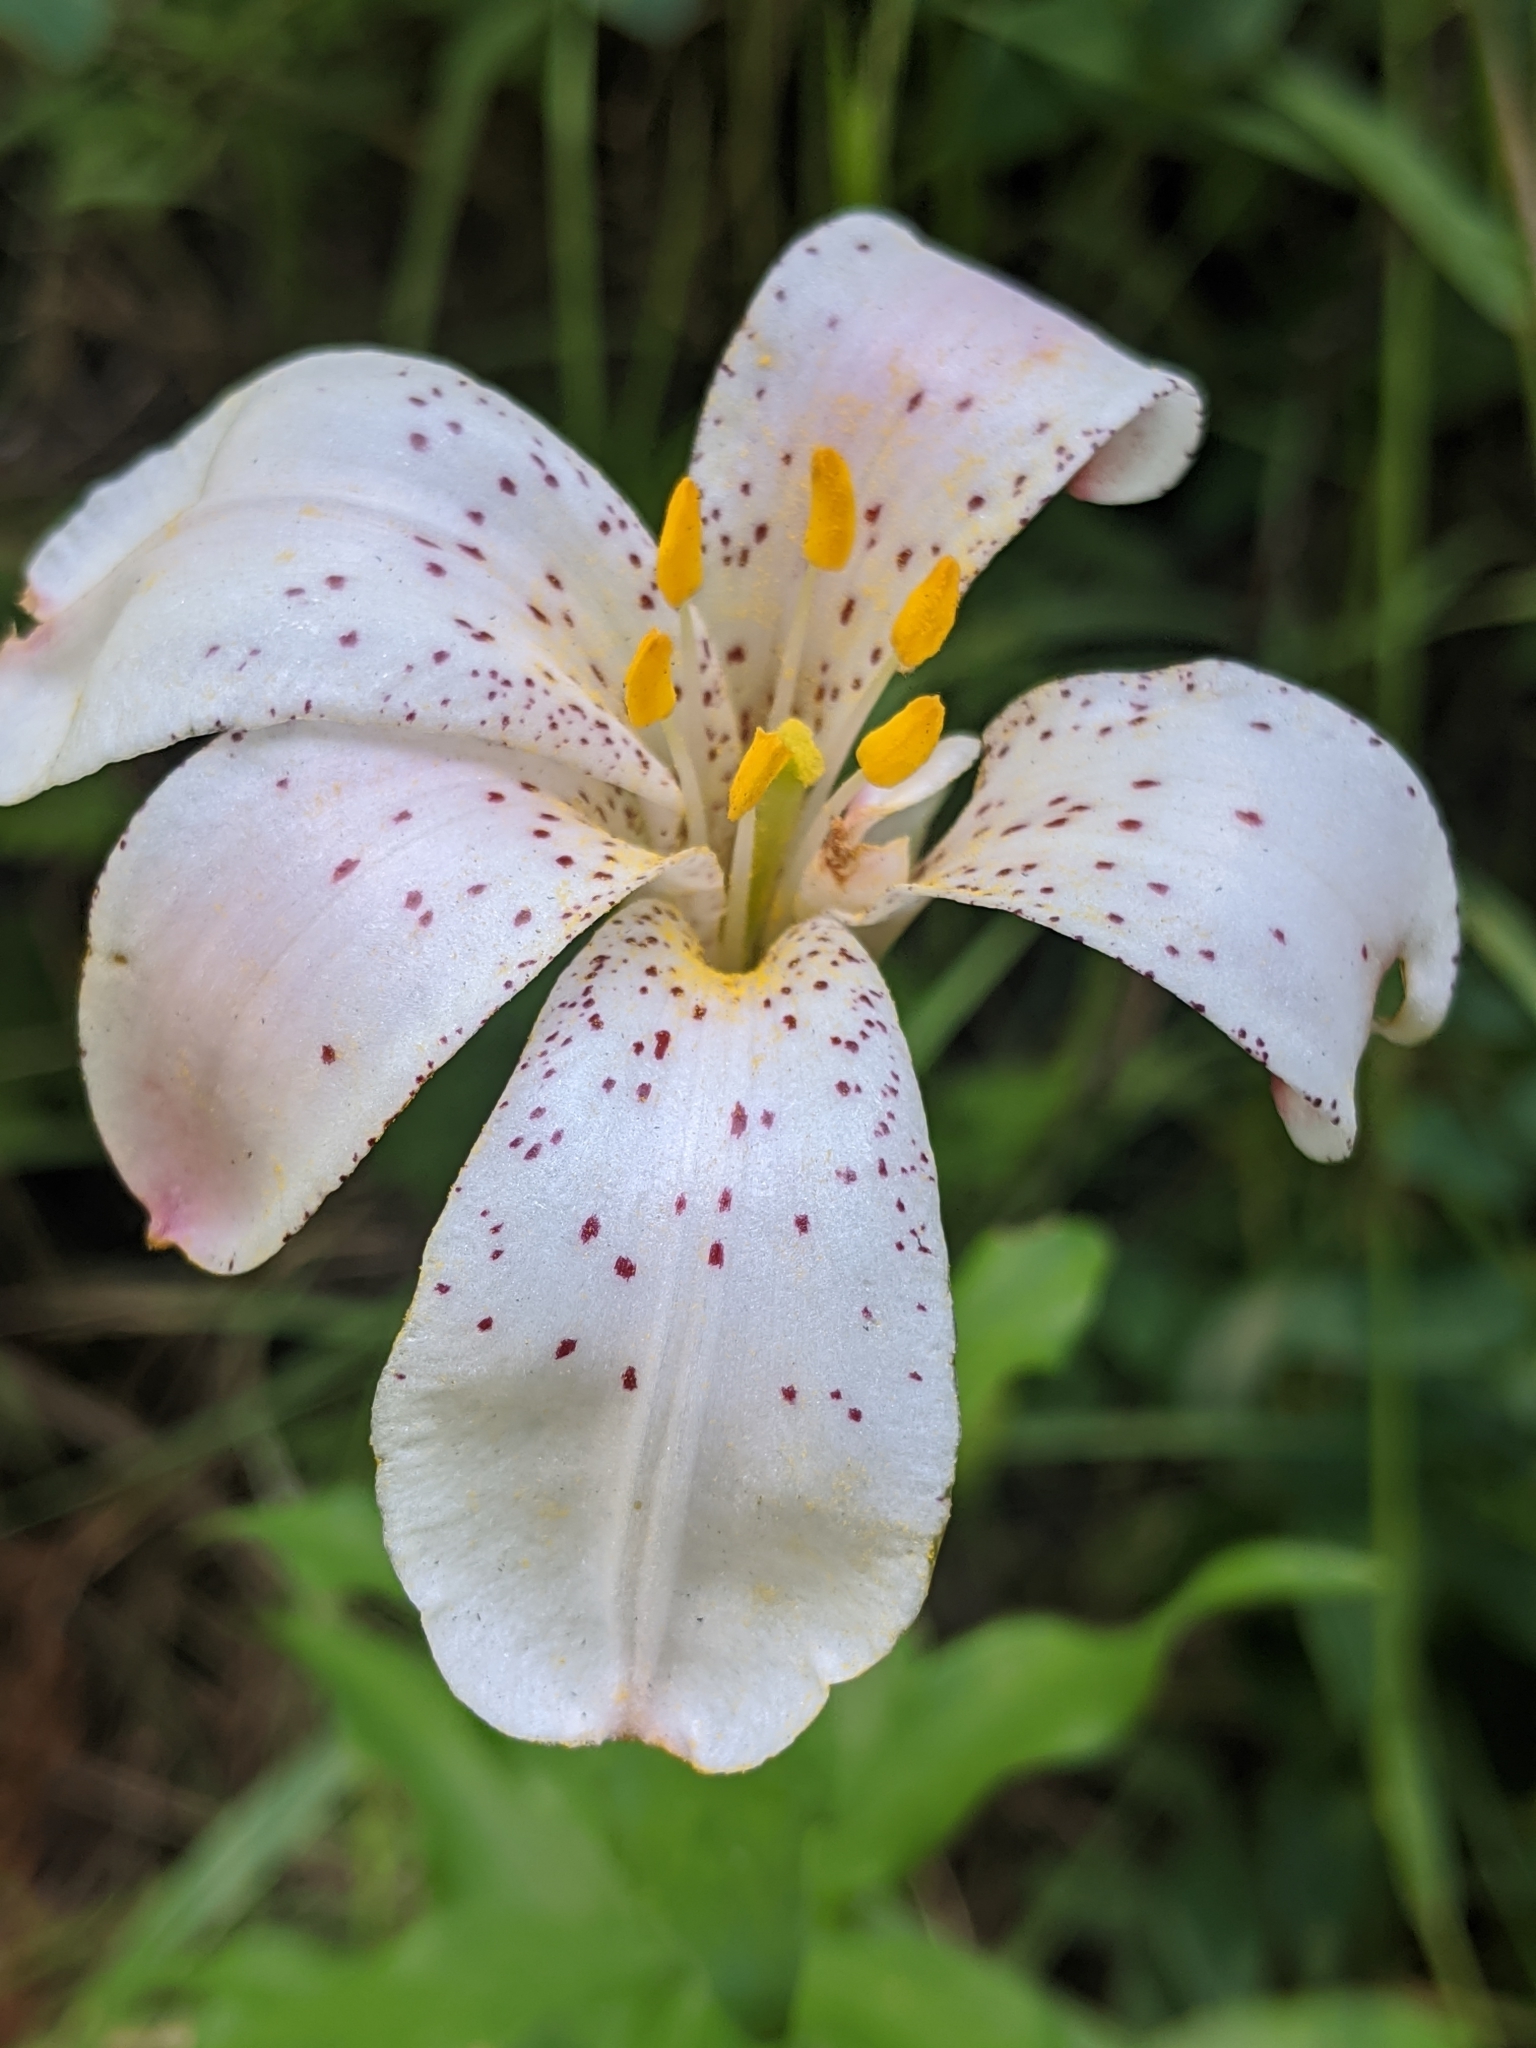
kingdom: Plantae
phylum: Tracheophyta
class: Liliopsida
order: Liliales
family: Liliaceae
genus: Lilium
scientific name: Lilium rubescens
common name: Chamise lily
